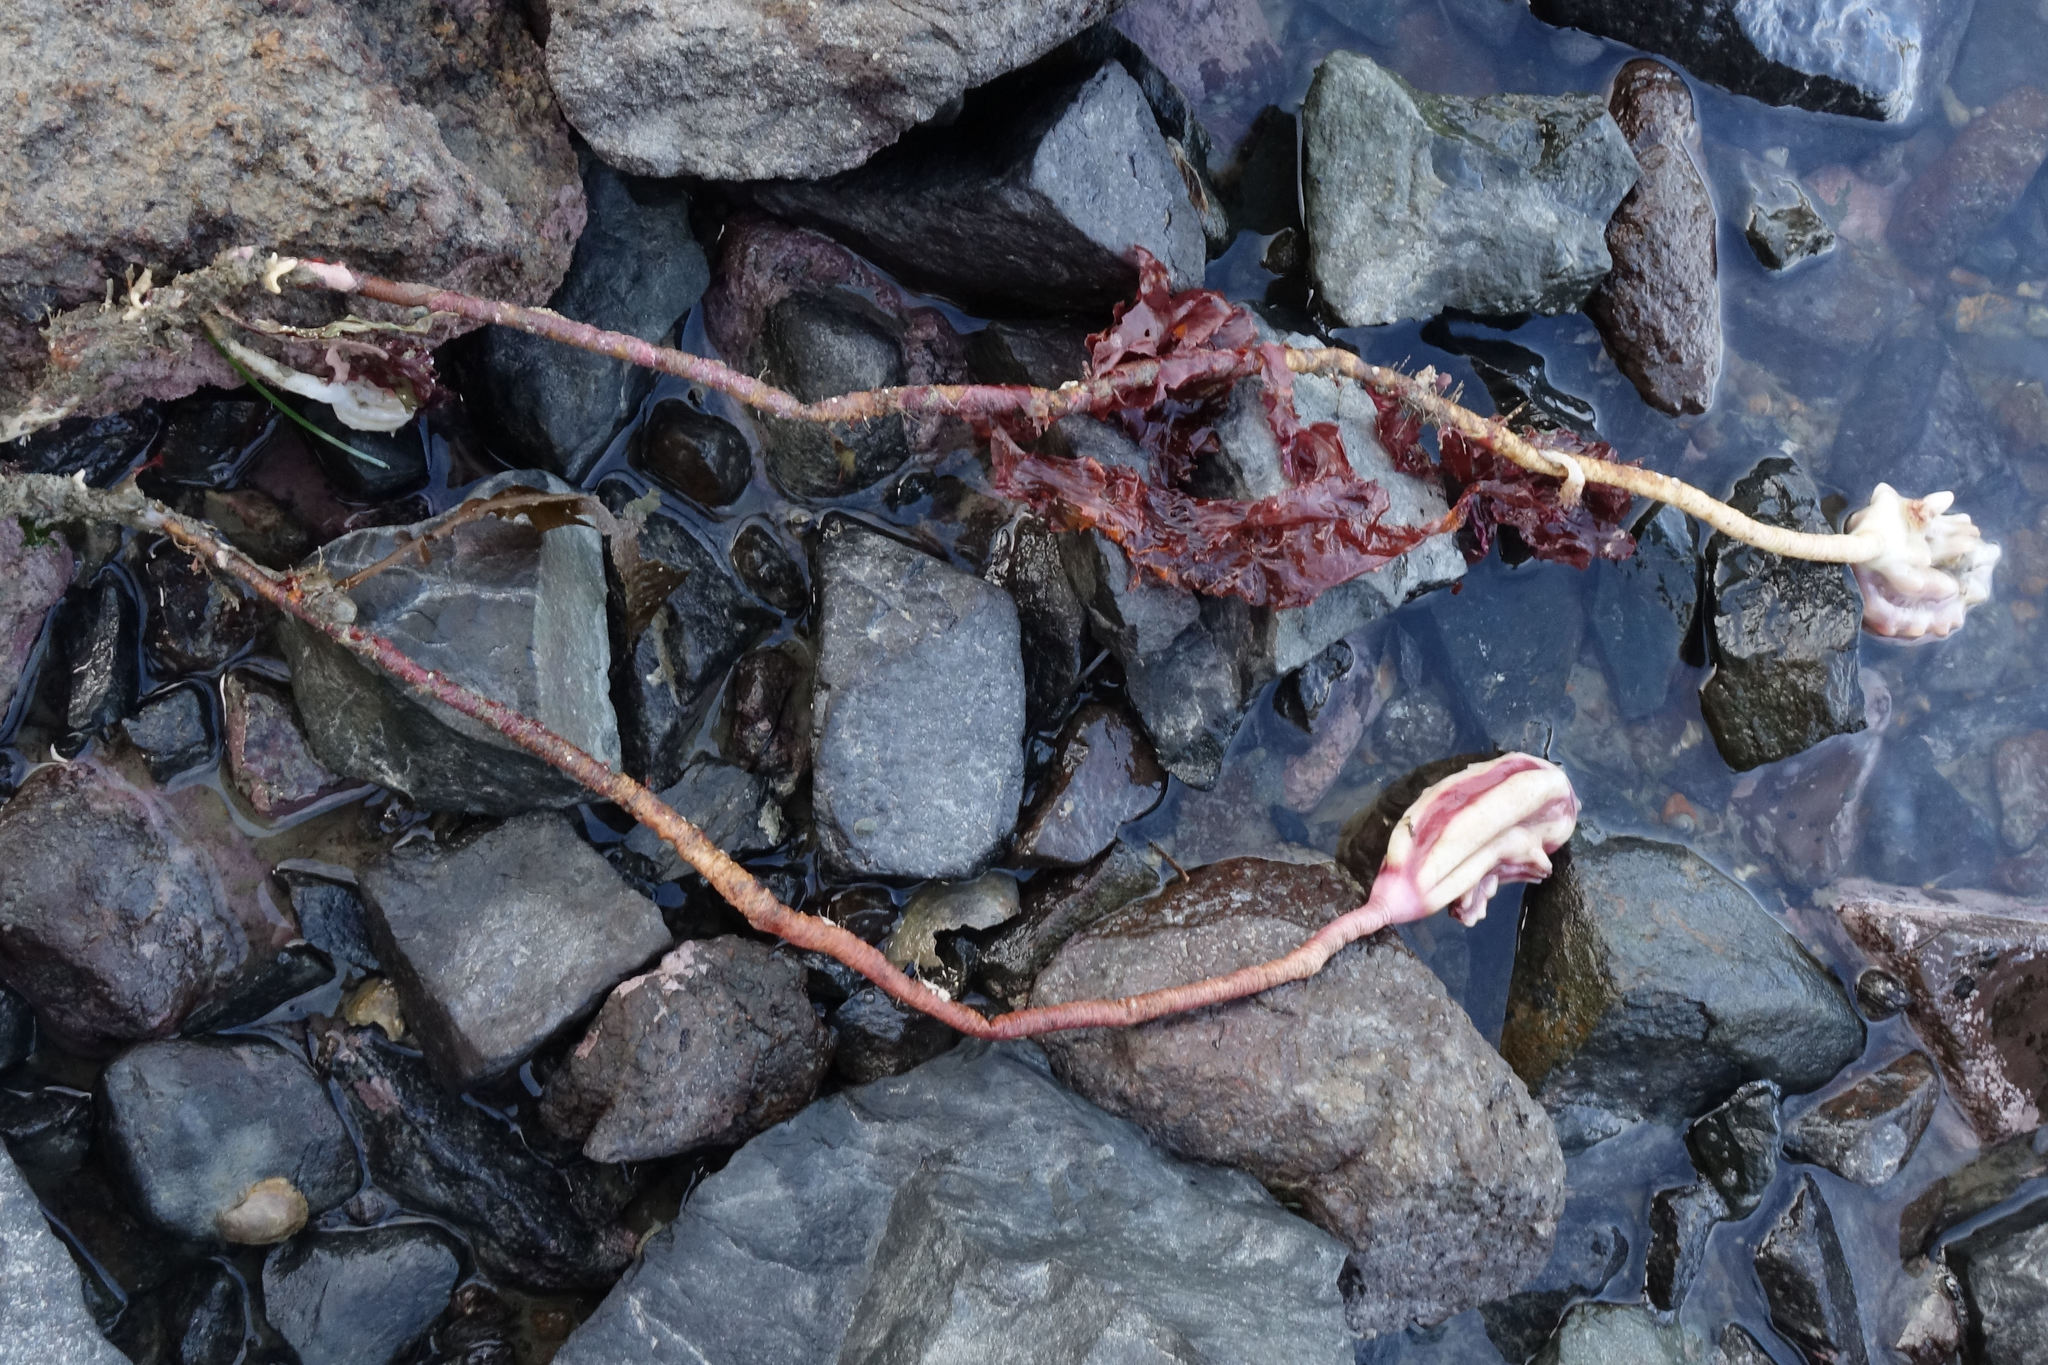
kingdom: Animalia
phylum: Chordata
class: Ascidiacea
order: Stolidobranchia
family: Pyuridae
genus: Pyura
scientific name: Pyura pachydermatina
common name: Sea tulip
